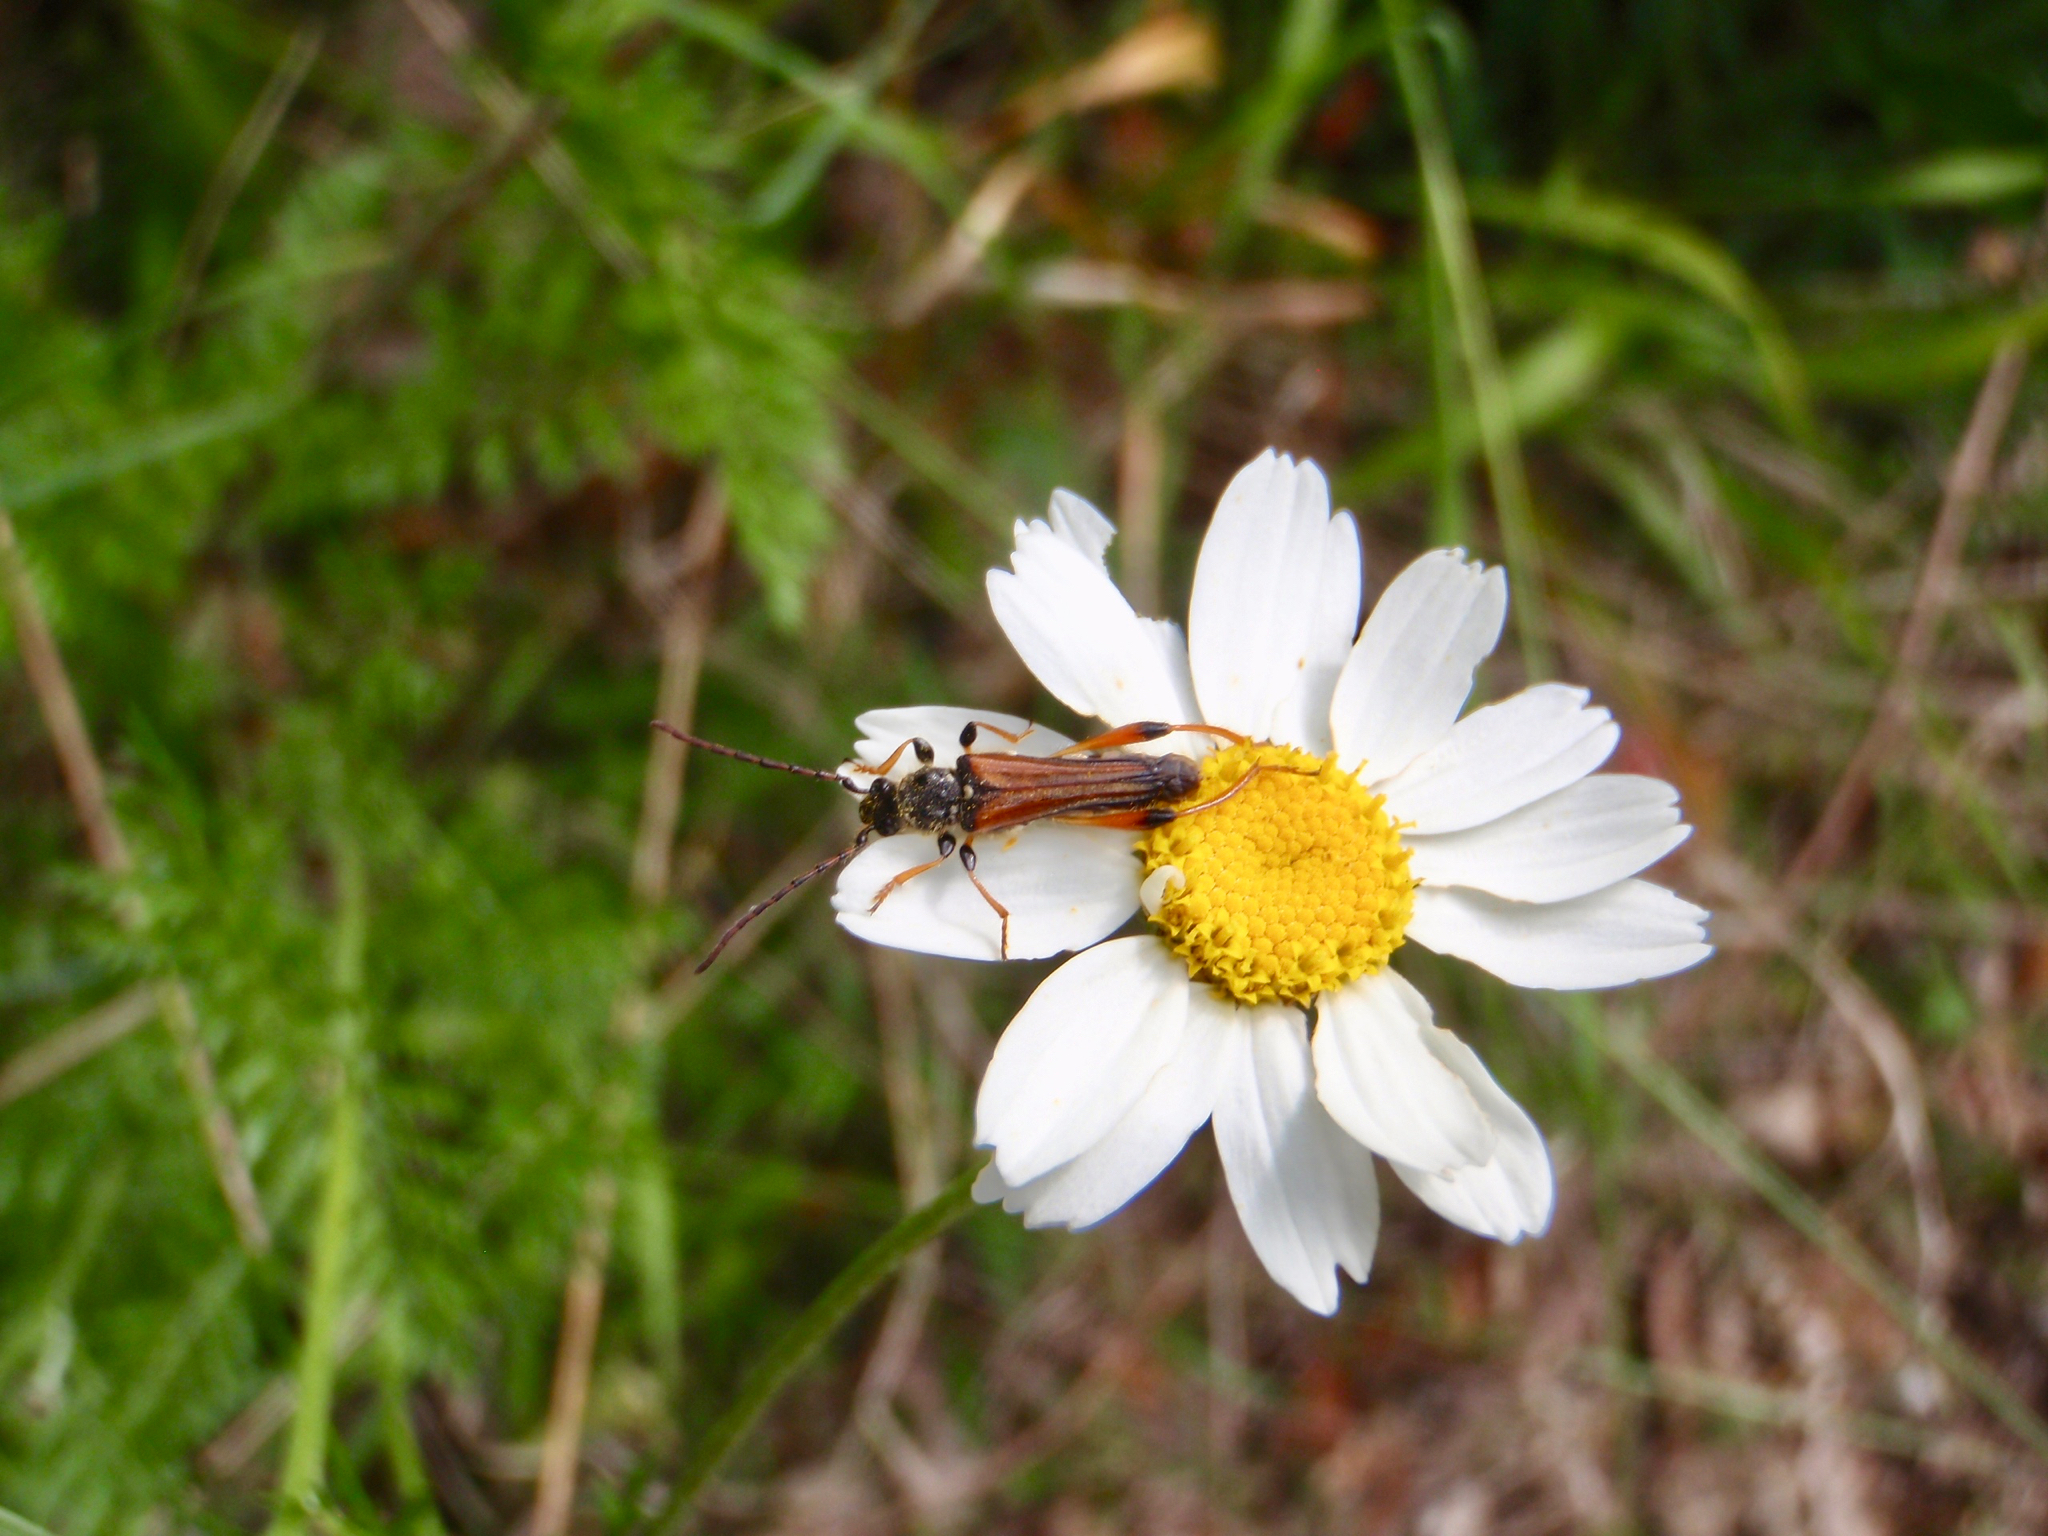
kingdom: Animalia
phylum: Arthropoda
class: Insecta
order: Coleoptera
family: Cerambycidae
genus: Stenopterus
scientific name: Stenopterus rufus
